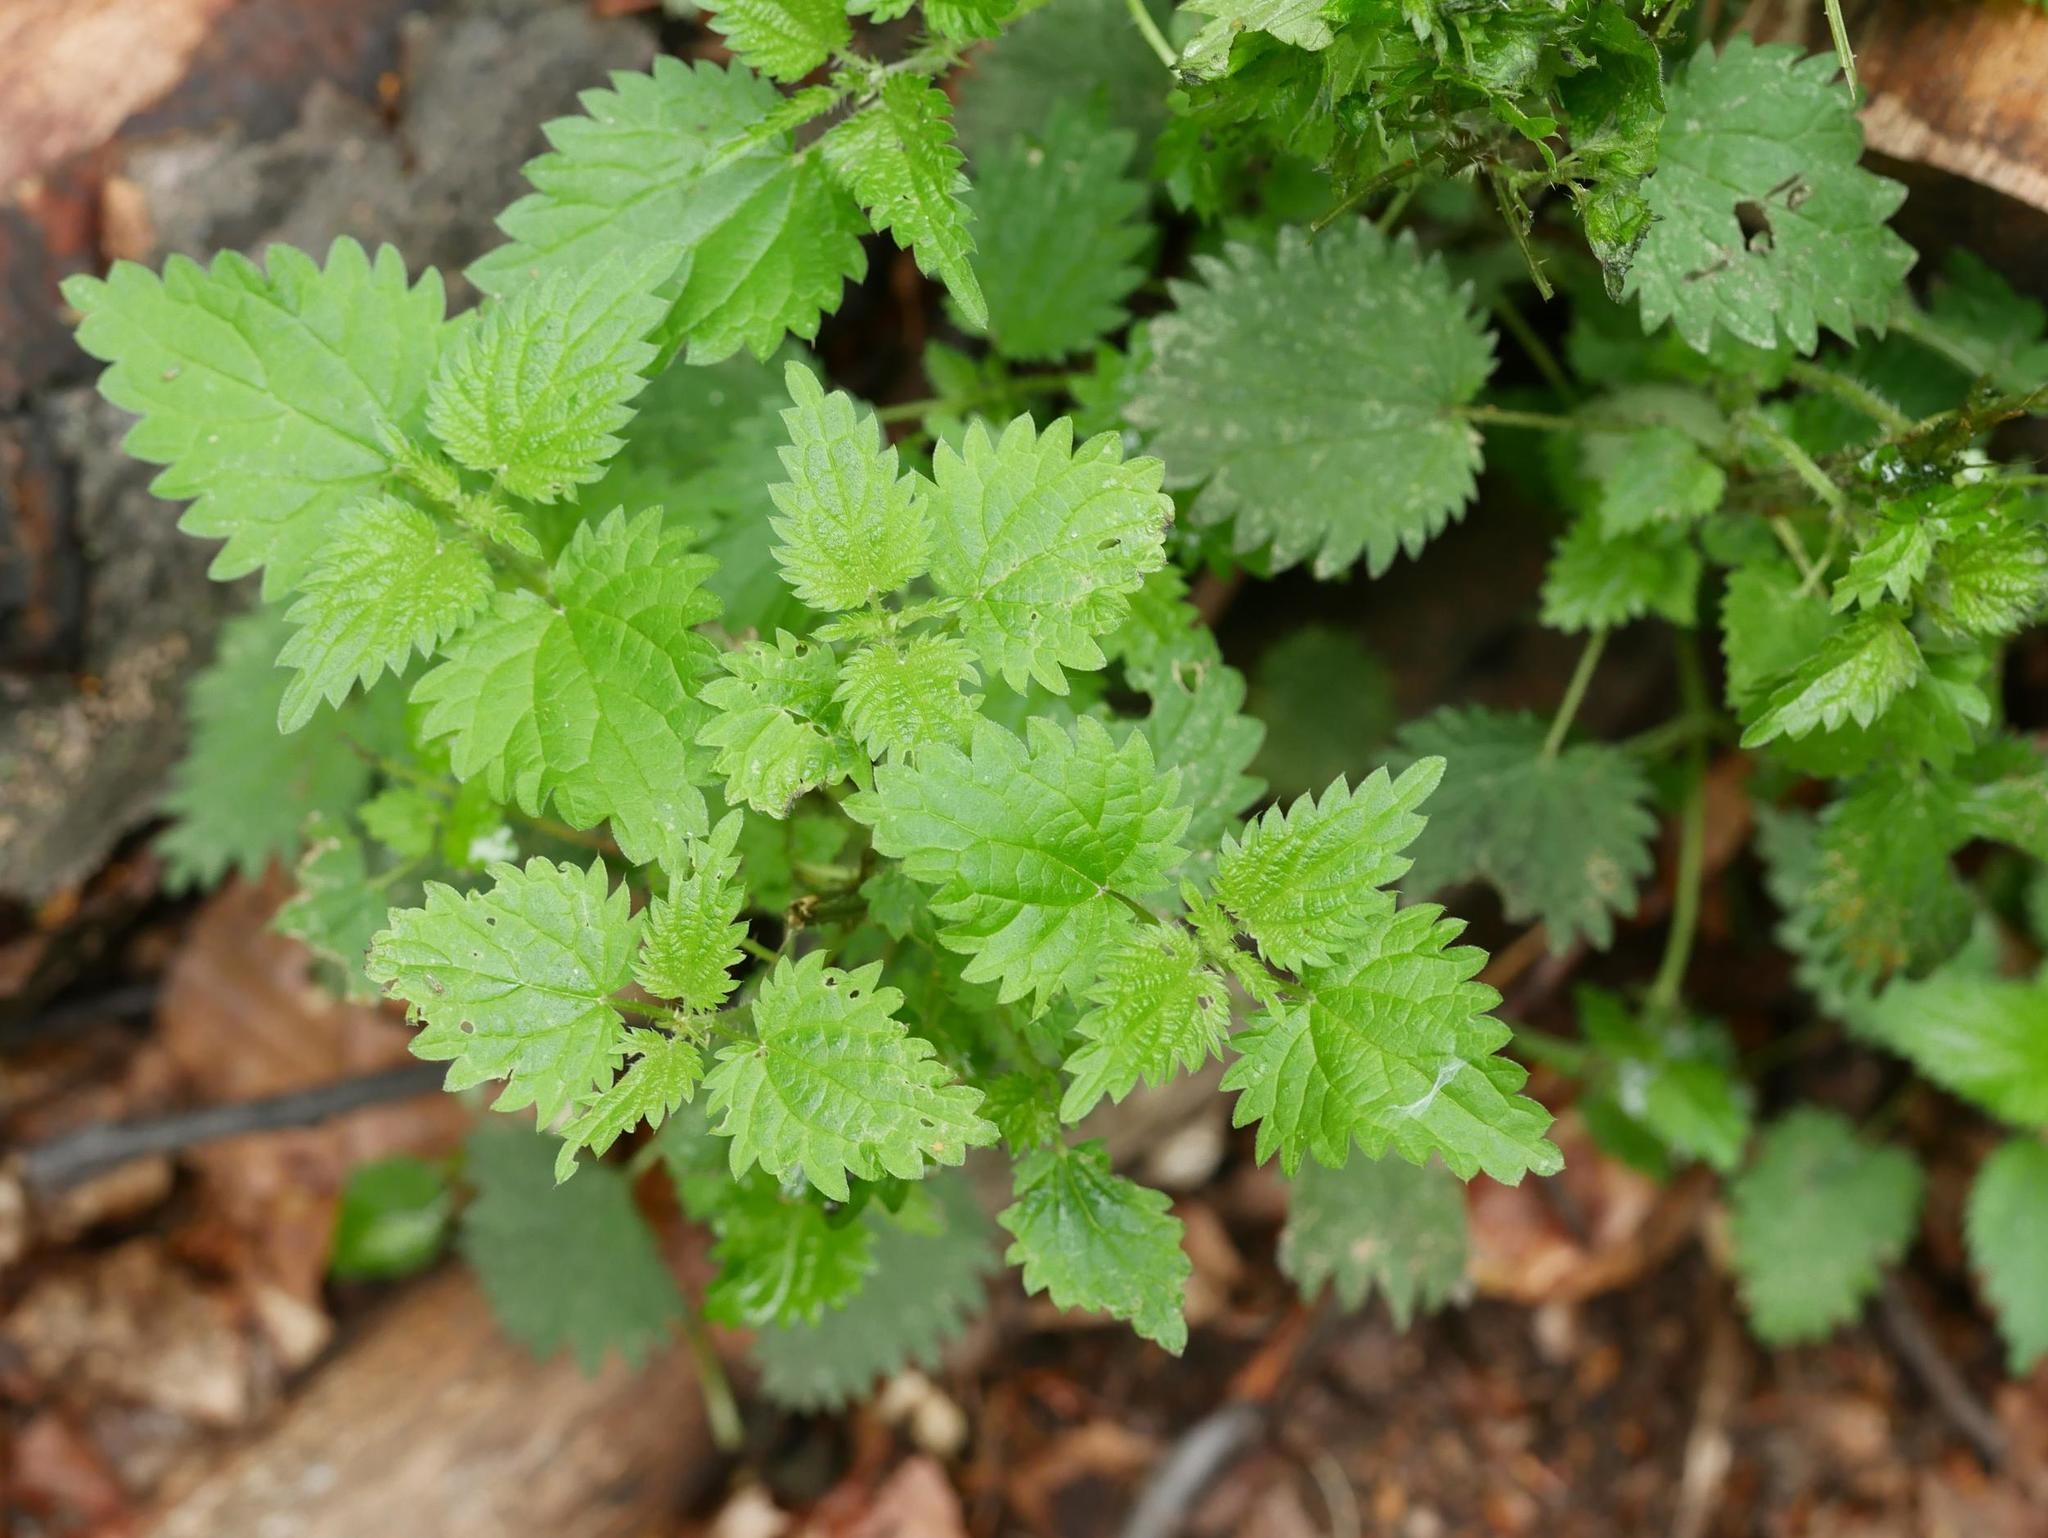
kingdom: Plantae
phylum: Tracheophyta
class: Magnoliopsida
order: Rosales
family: Urticaceae
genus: Urtica
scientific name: Urtica dioica
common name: Common nettle
